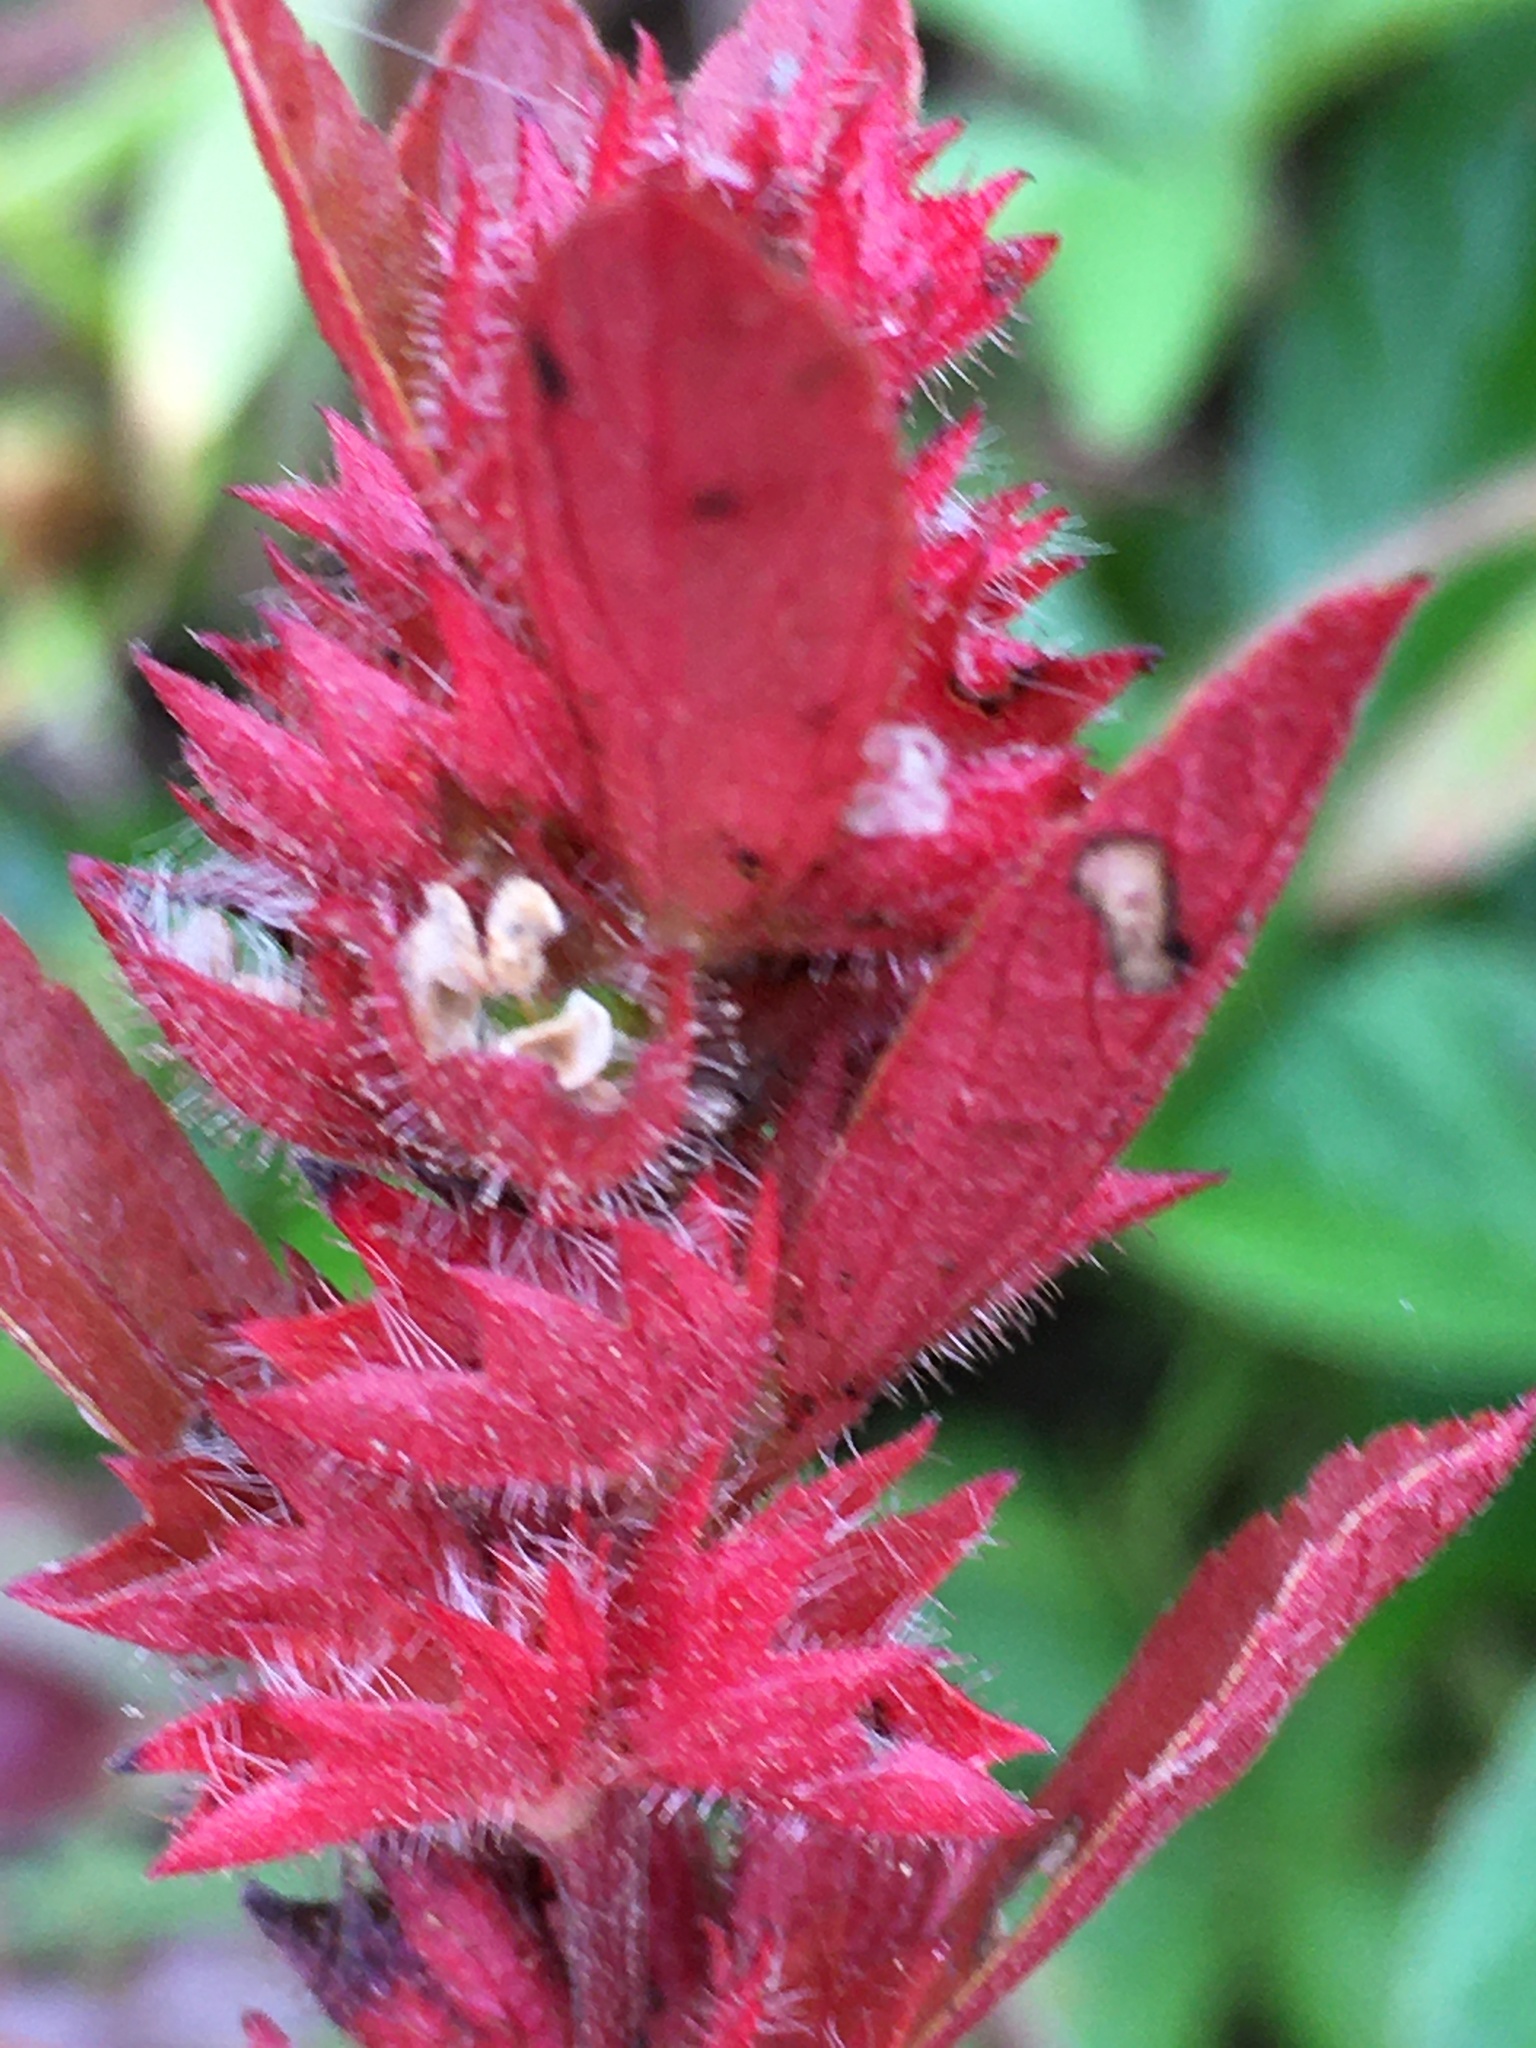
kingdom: Plantae
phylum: Tracheophyta
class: Magnoliopsida
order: Malpighiales
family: Euphorbiaceae
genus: Acalypha
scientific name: Acalypha gracilens
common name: Slender three-seeded mercury
